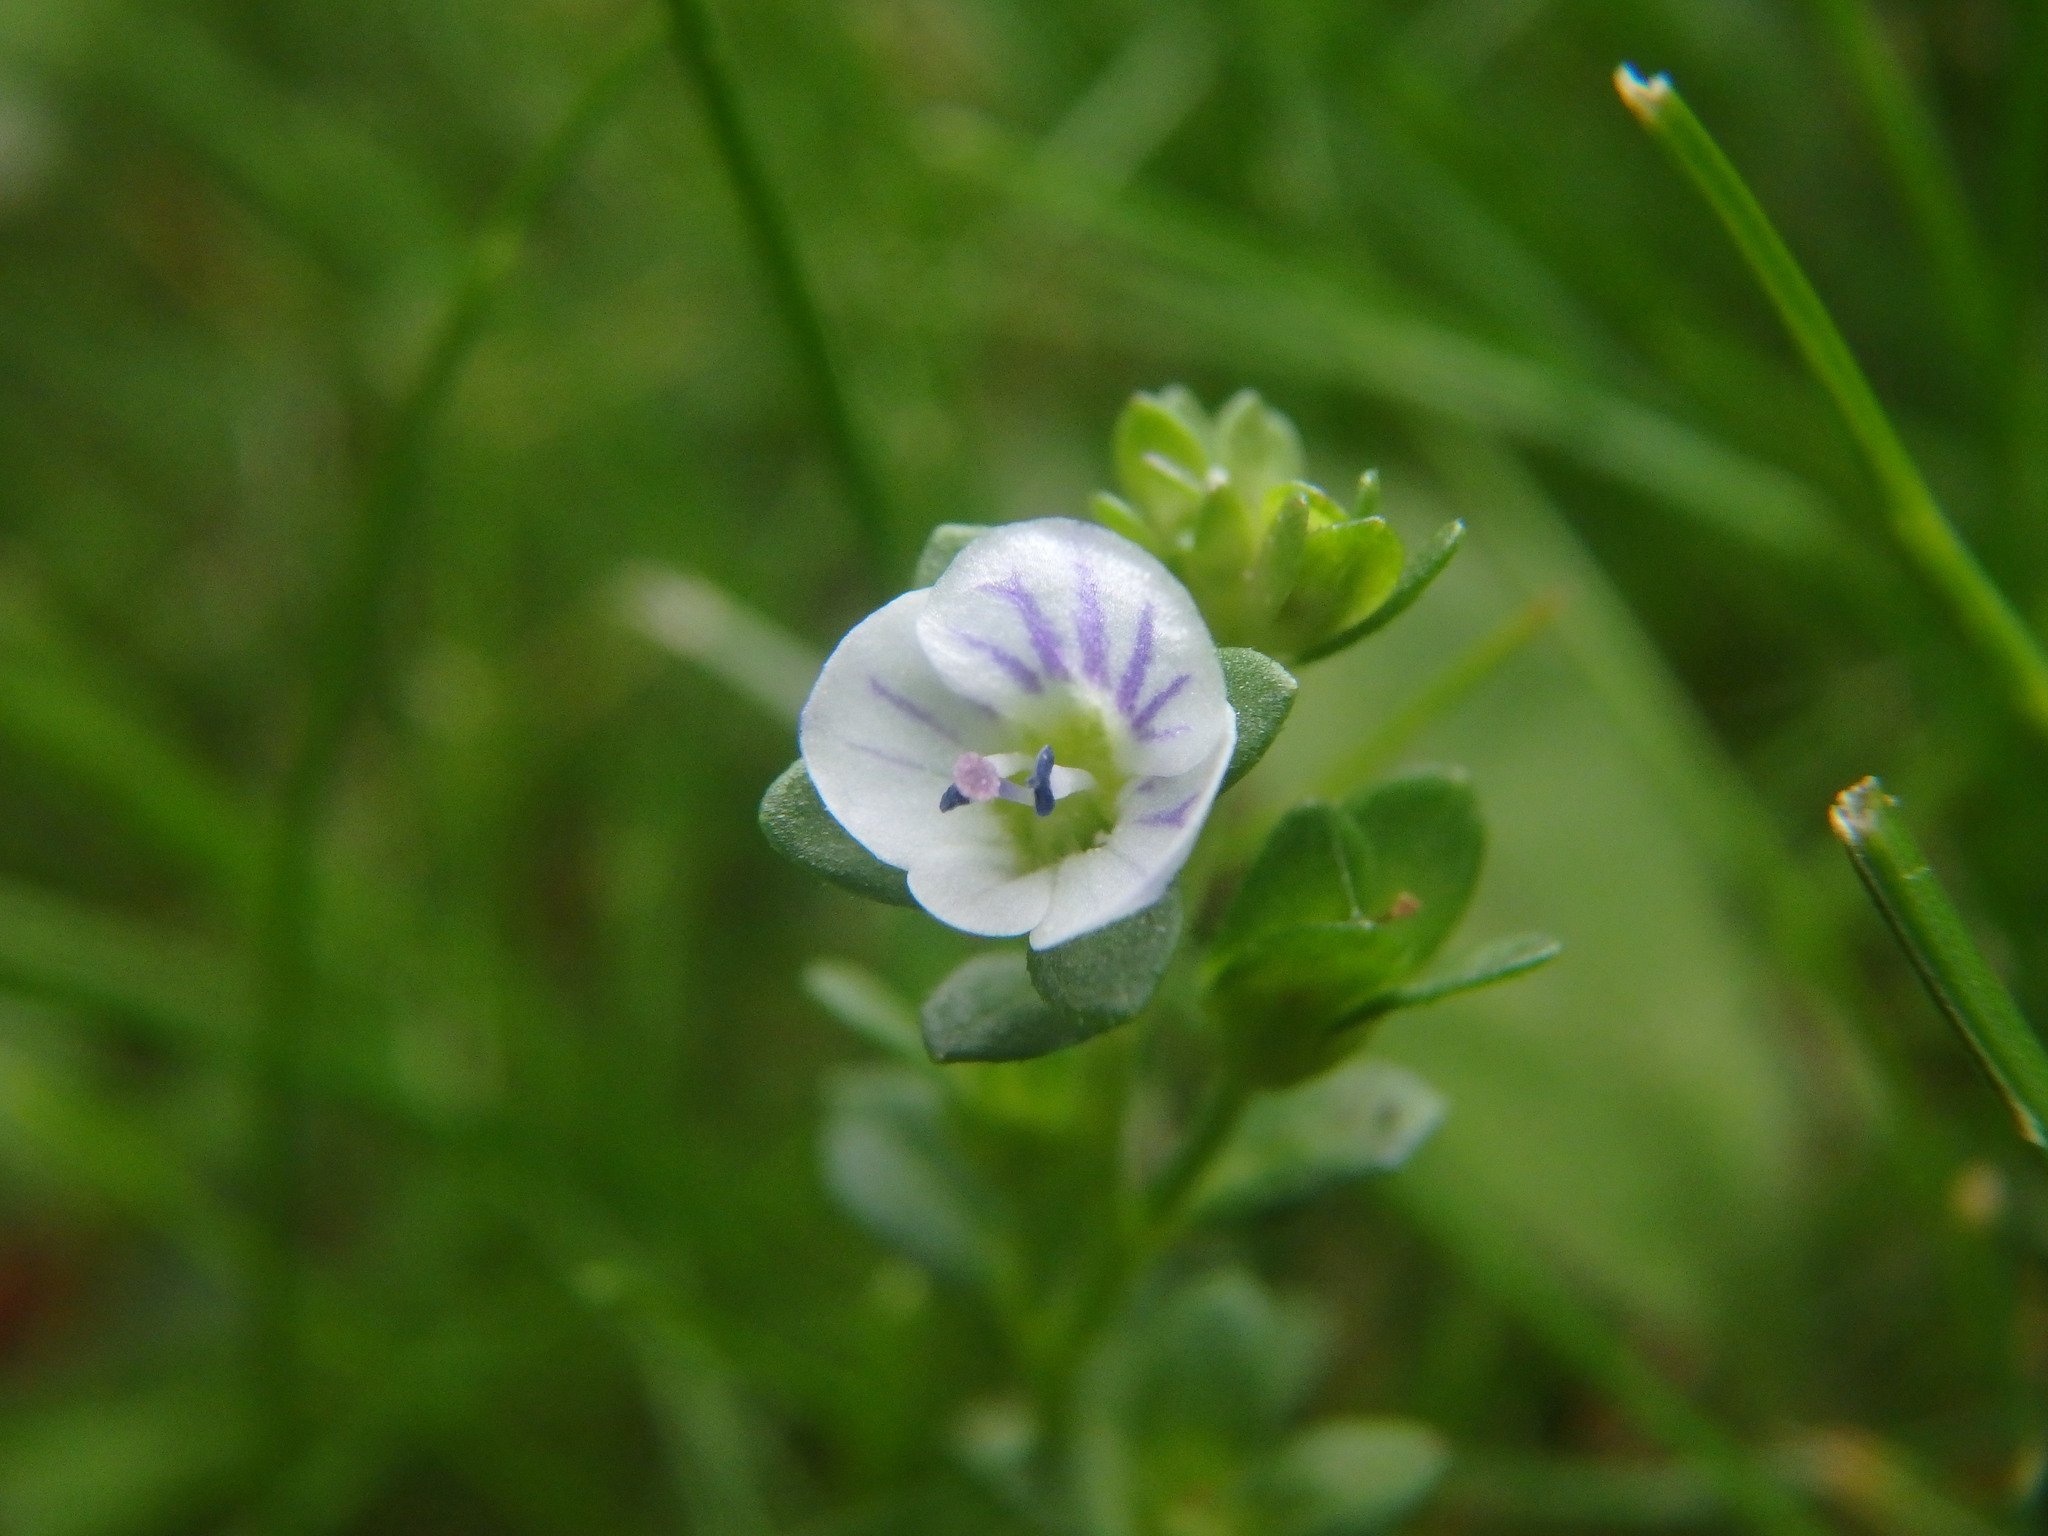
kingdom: Plantae
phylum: Tracheophyta
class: Magnoliopsida
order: Lamiales
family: Plantaginaceae
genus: Veronica
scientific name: Veronica serpyllifolia
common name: Thyme-leaved speedwell
